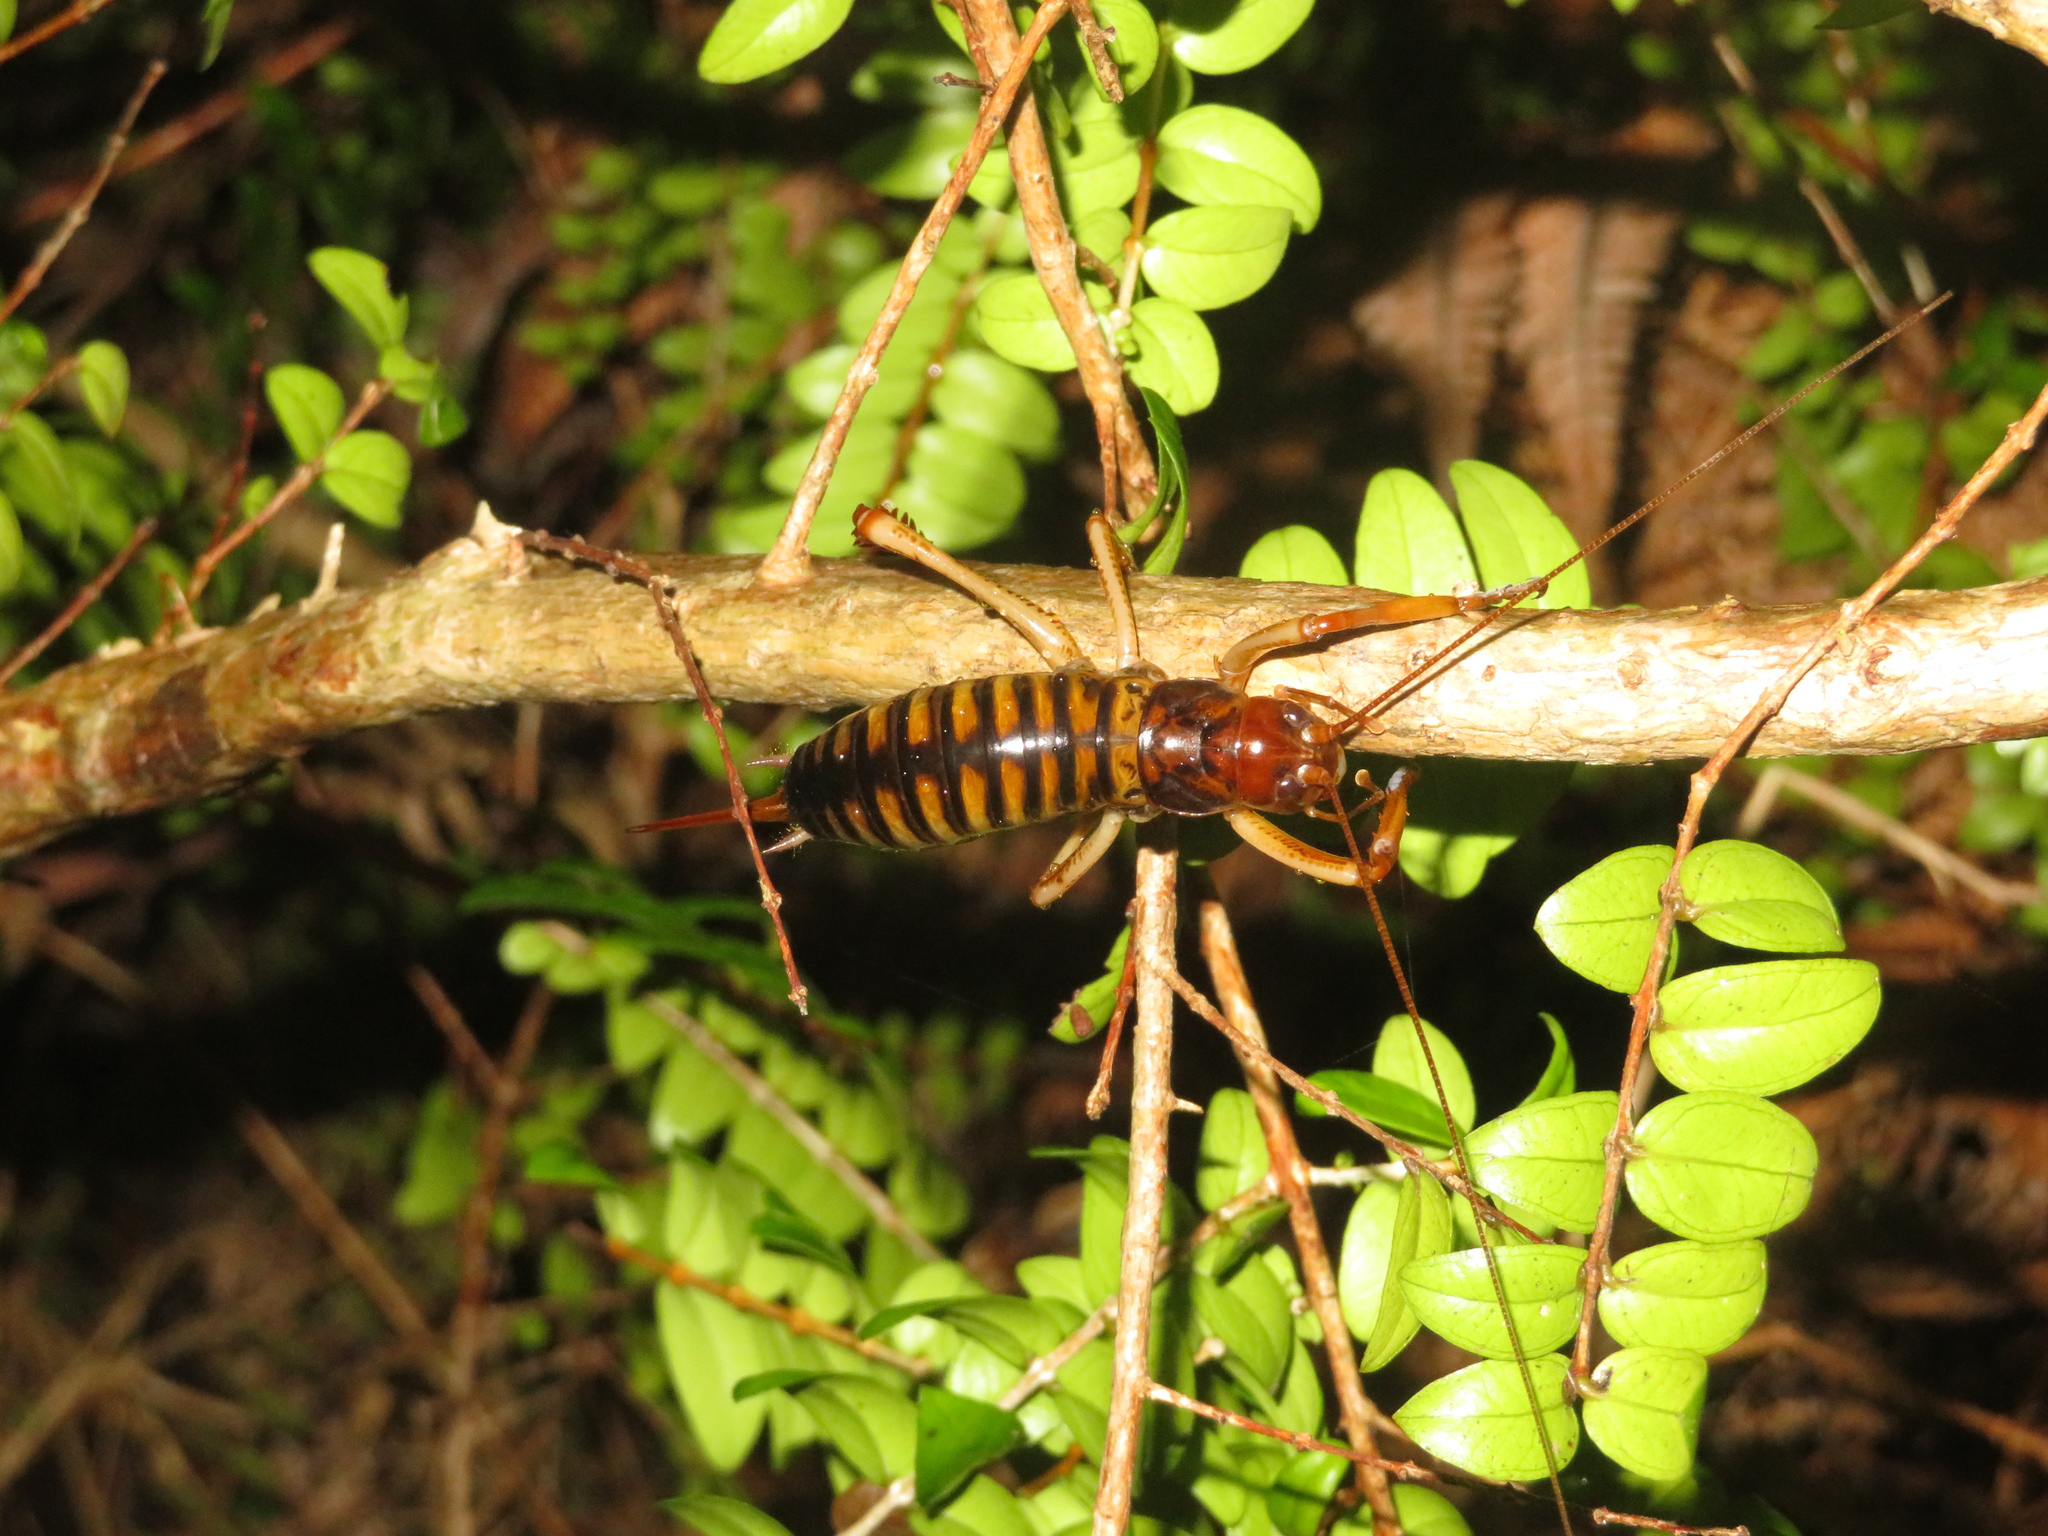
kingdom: Animalia
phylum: Arthropoda
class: Insecta
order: Orthoptera
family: Anostostomatidae
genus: Hemideina
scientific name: Hemideina crassidens
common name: Wellington tree weta
